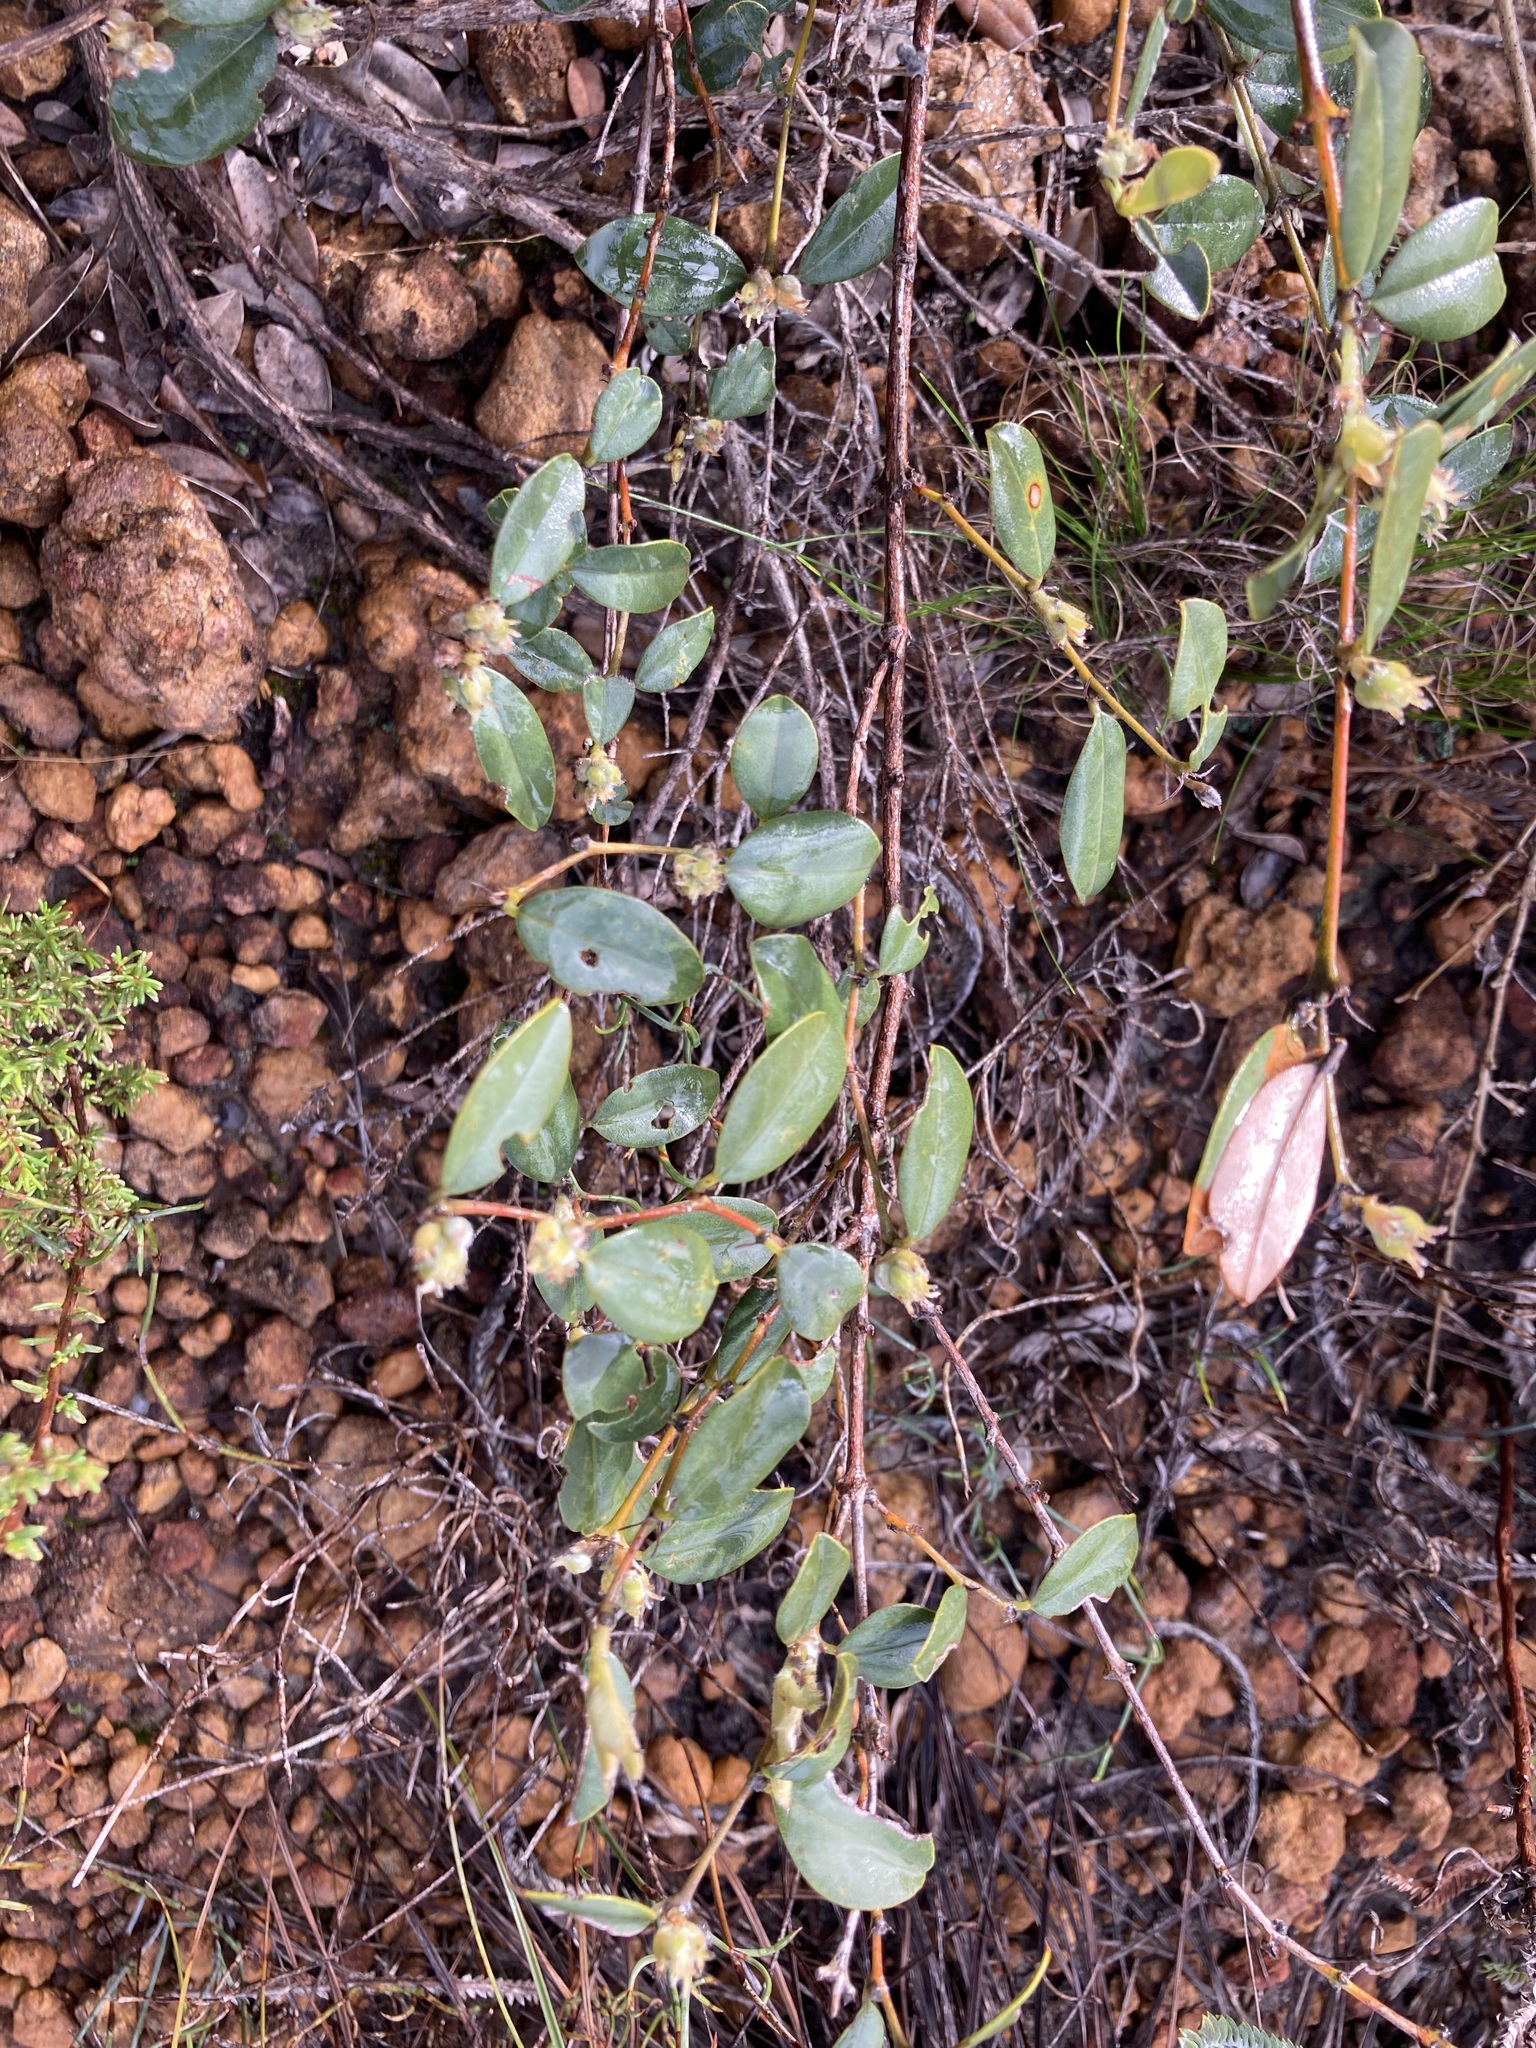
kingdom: Plantae
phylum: Tracheophyta
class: Magnoliopsida
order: Fabales
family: Fabaceae
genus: Gastrolobium
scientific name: Gastrolobium axillare
